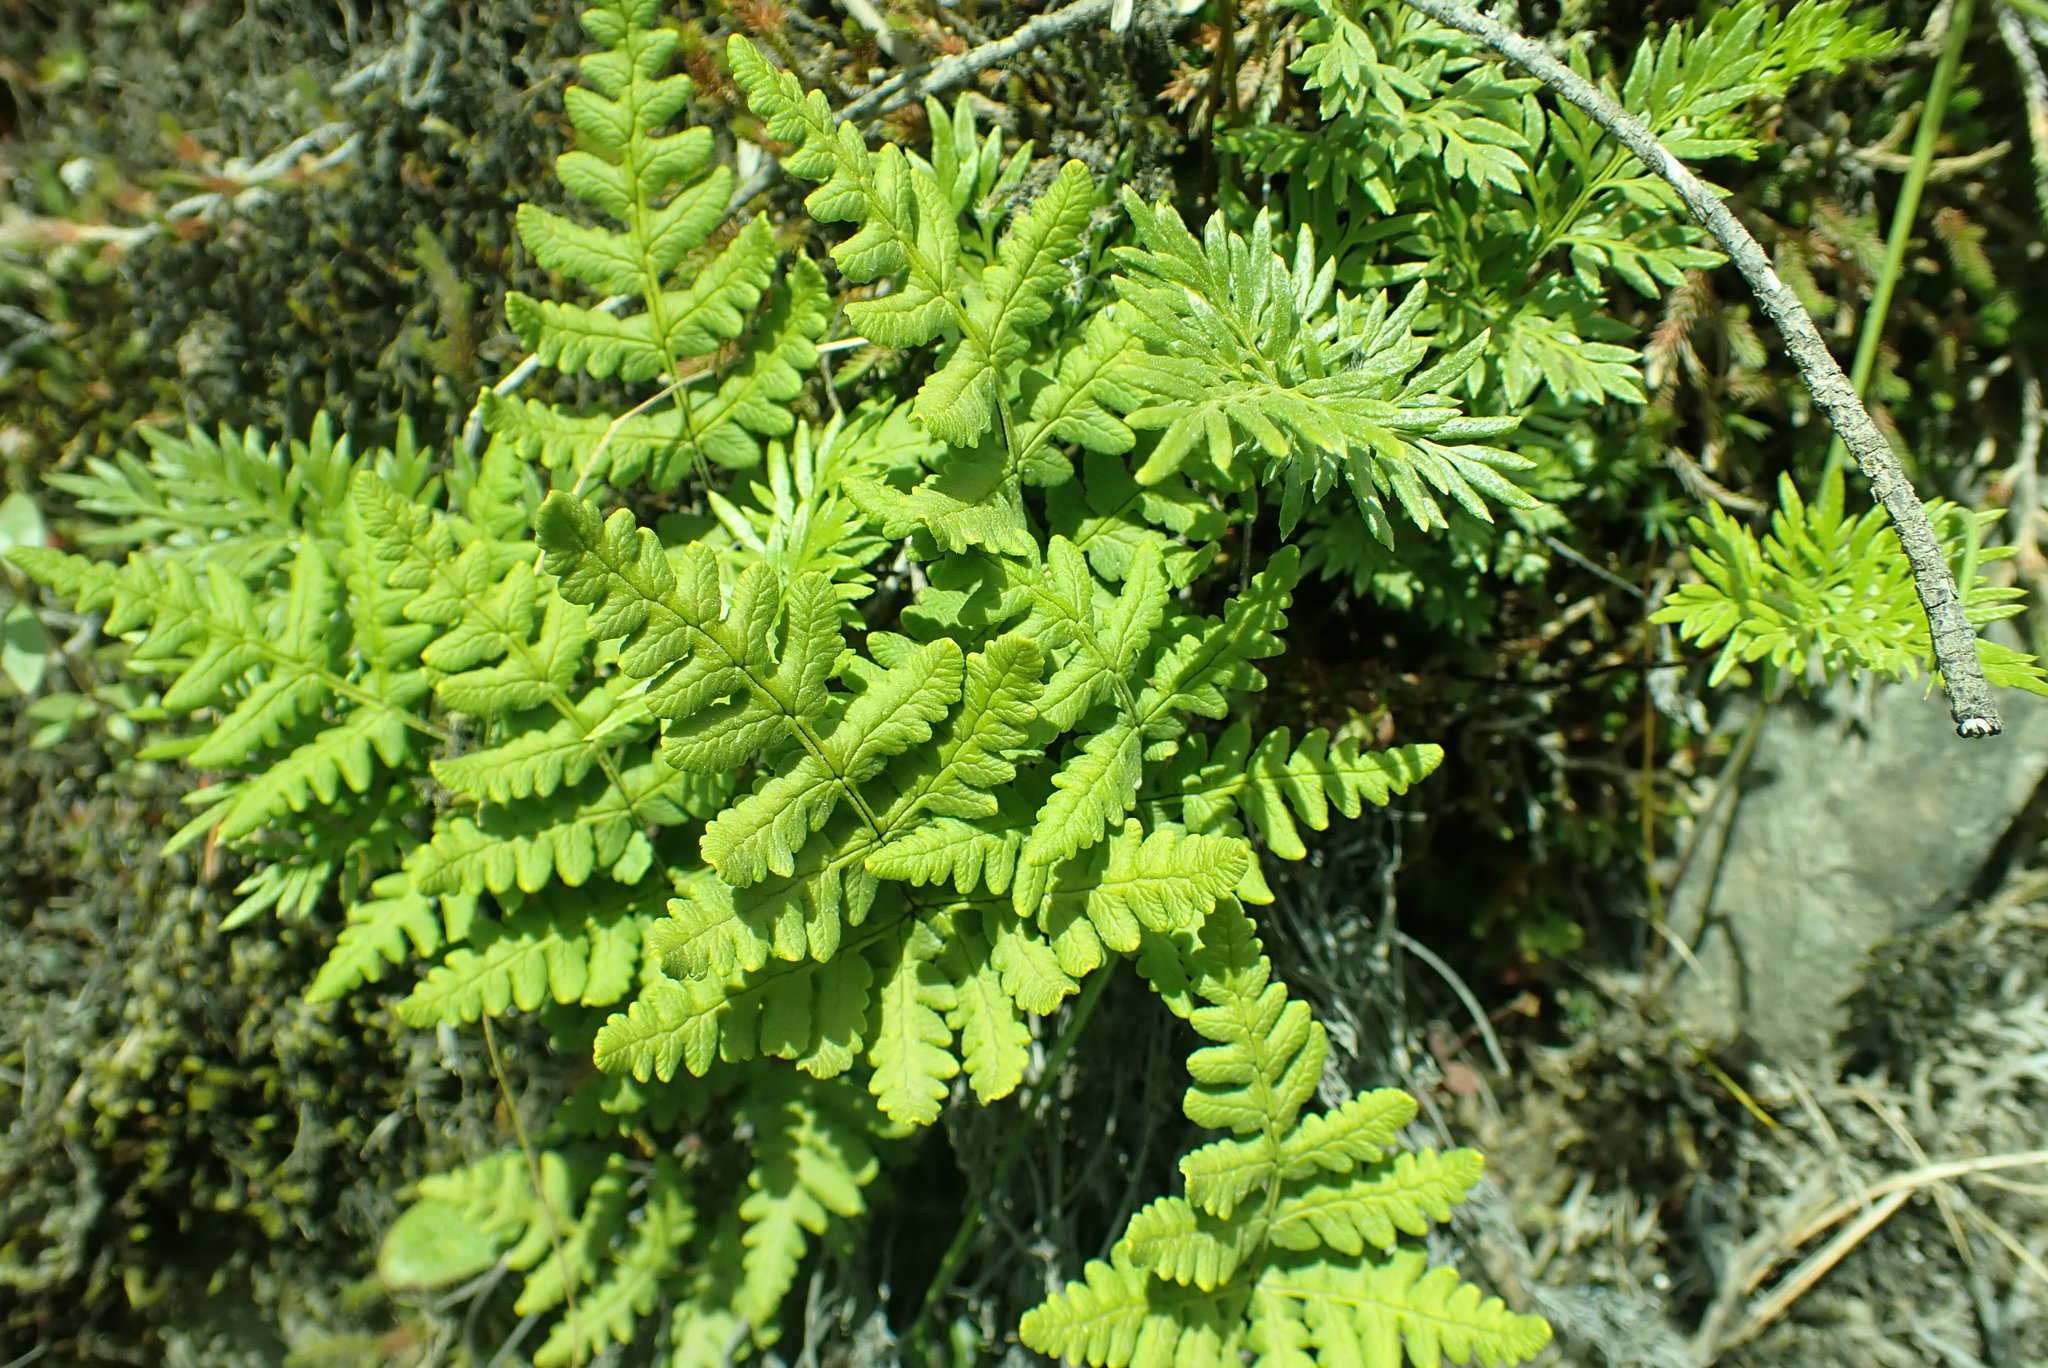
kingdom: Plantae
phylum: Tracheophyta
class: Polypodiopsida
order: Polypodiales
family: Pteridaceae
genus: Pentagramma
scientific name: Pentagramma triangularis
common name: Gold fern
